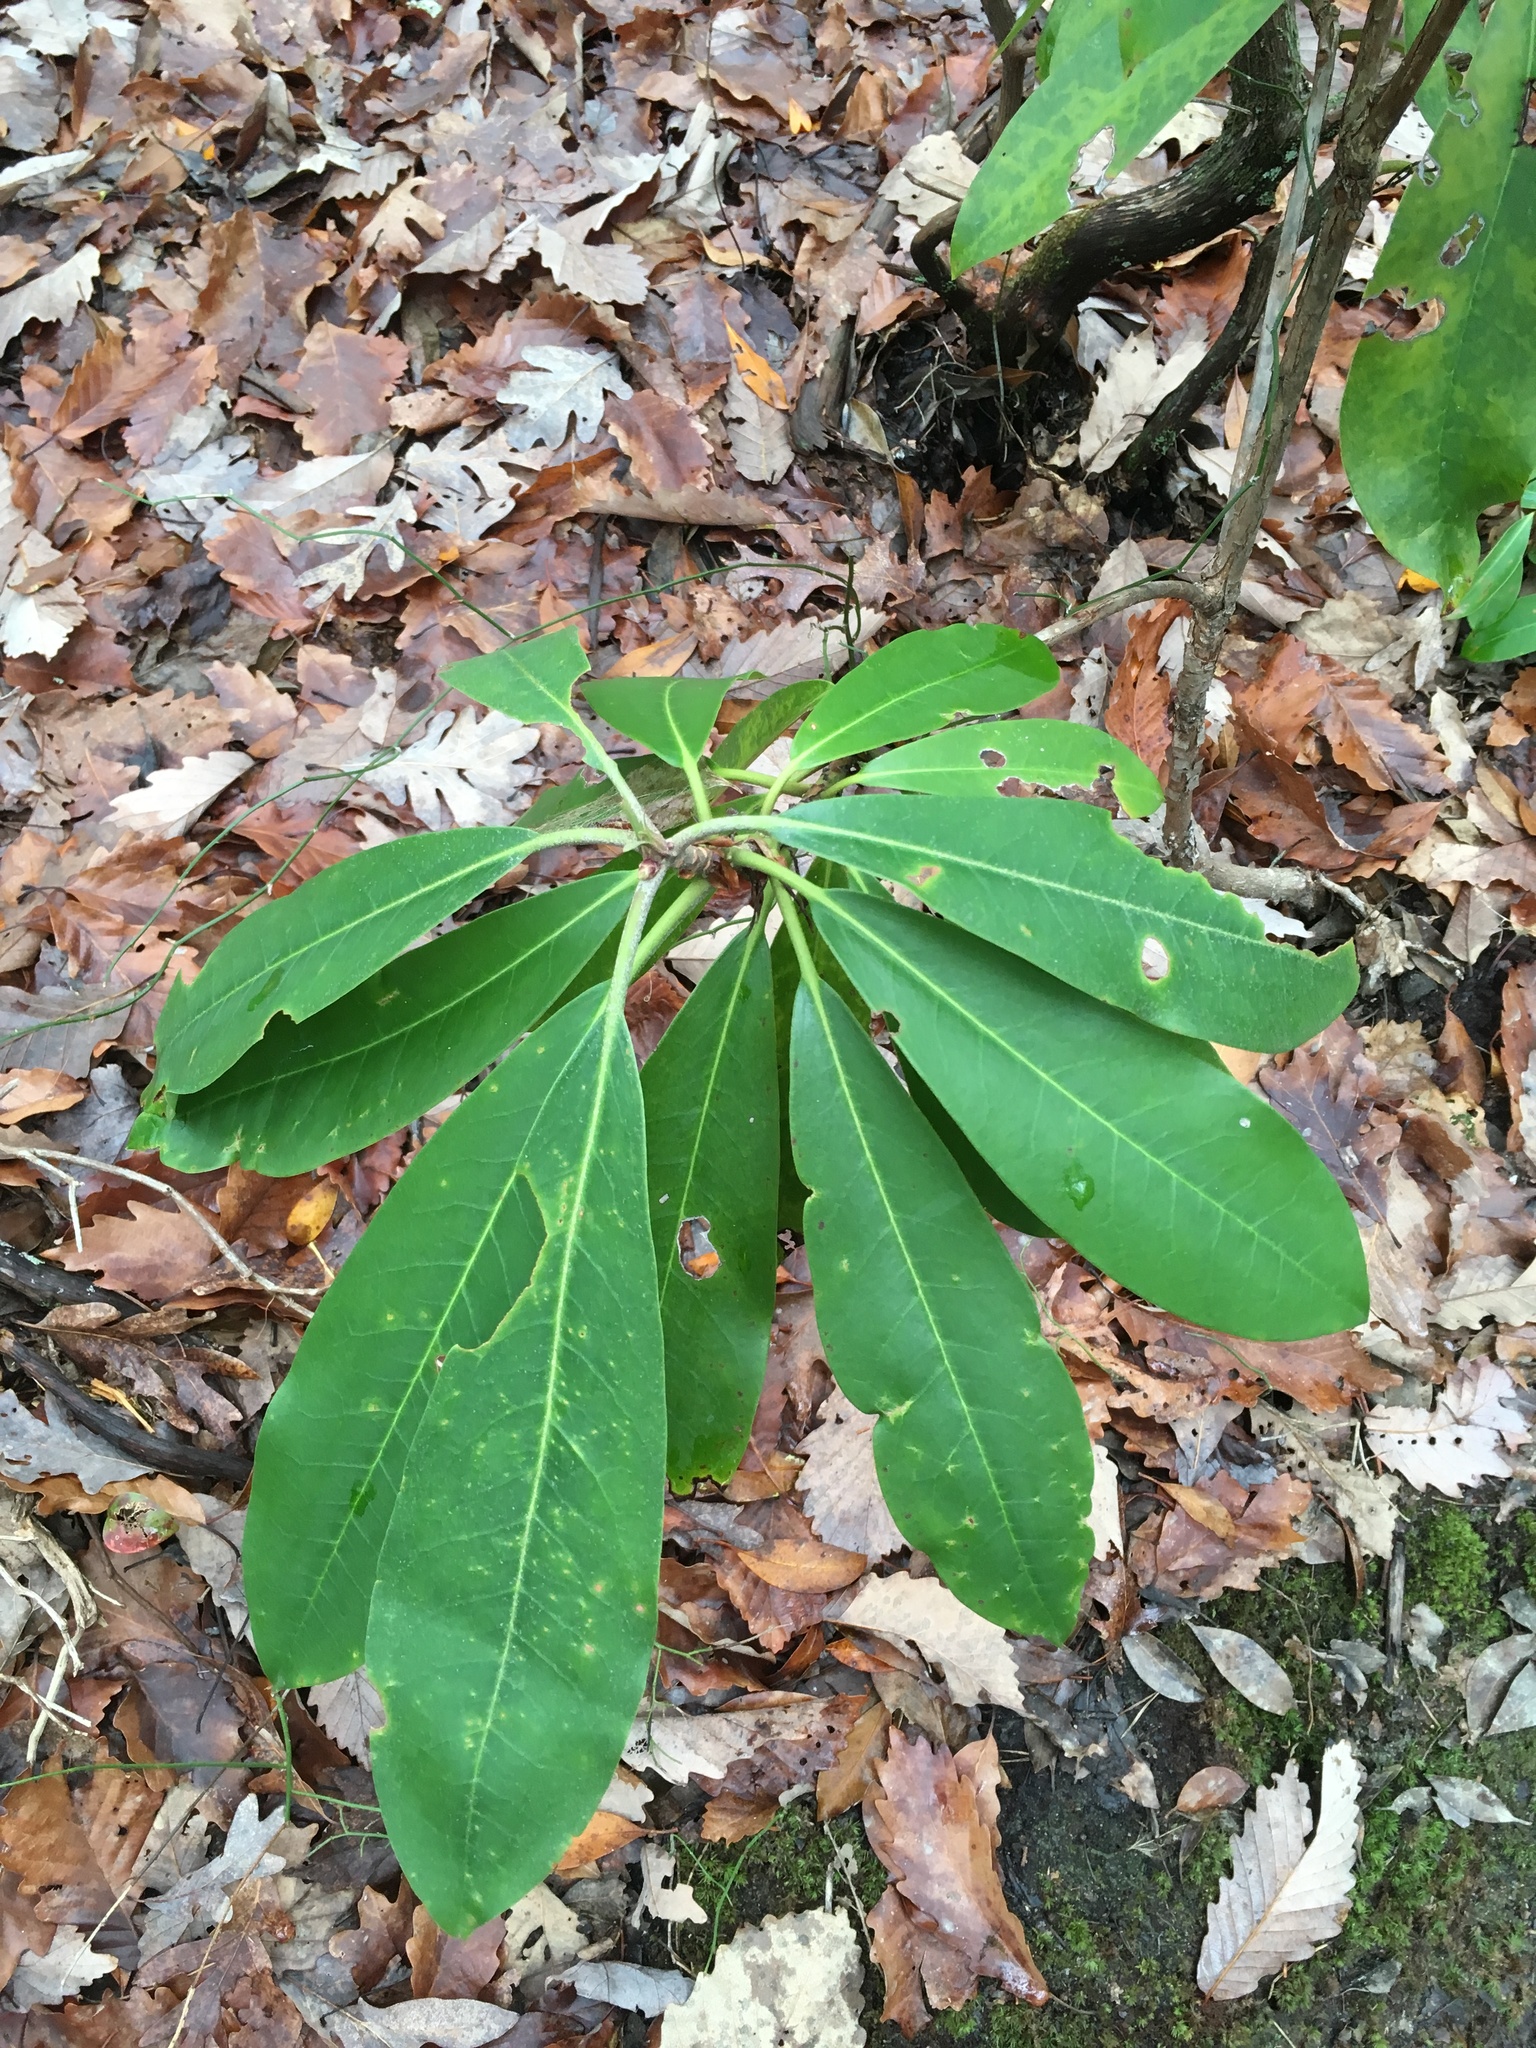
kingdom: Plantae
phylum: Tracheophyta
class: Magnoliopsida
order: Ericales
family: Ericaceae
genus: Rhododendron
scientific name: Rhododendron maximum
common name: Great rhododendron
